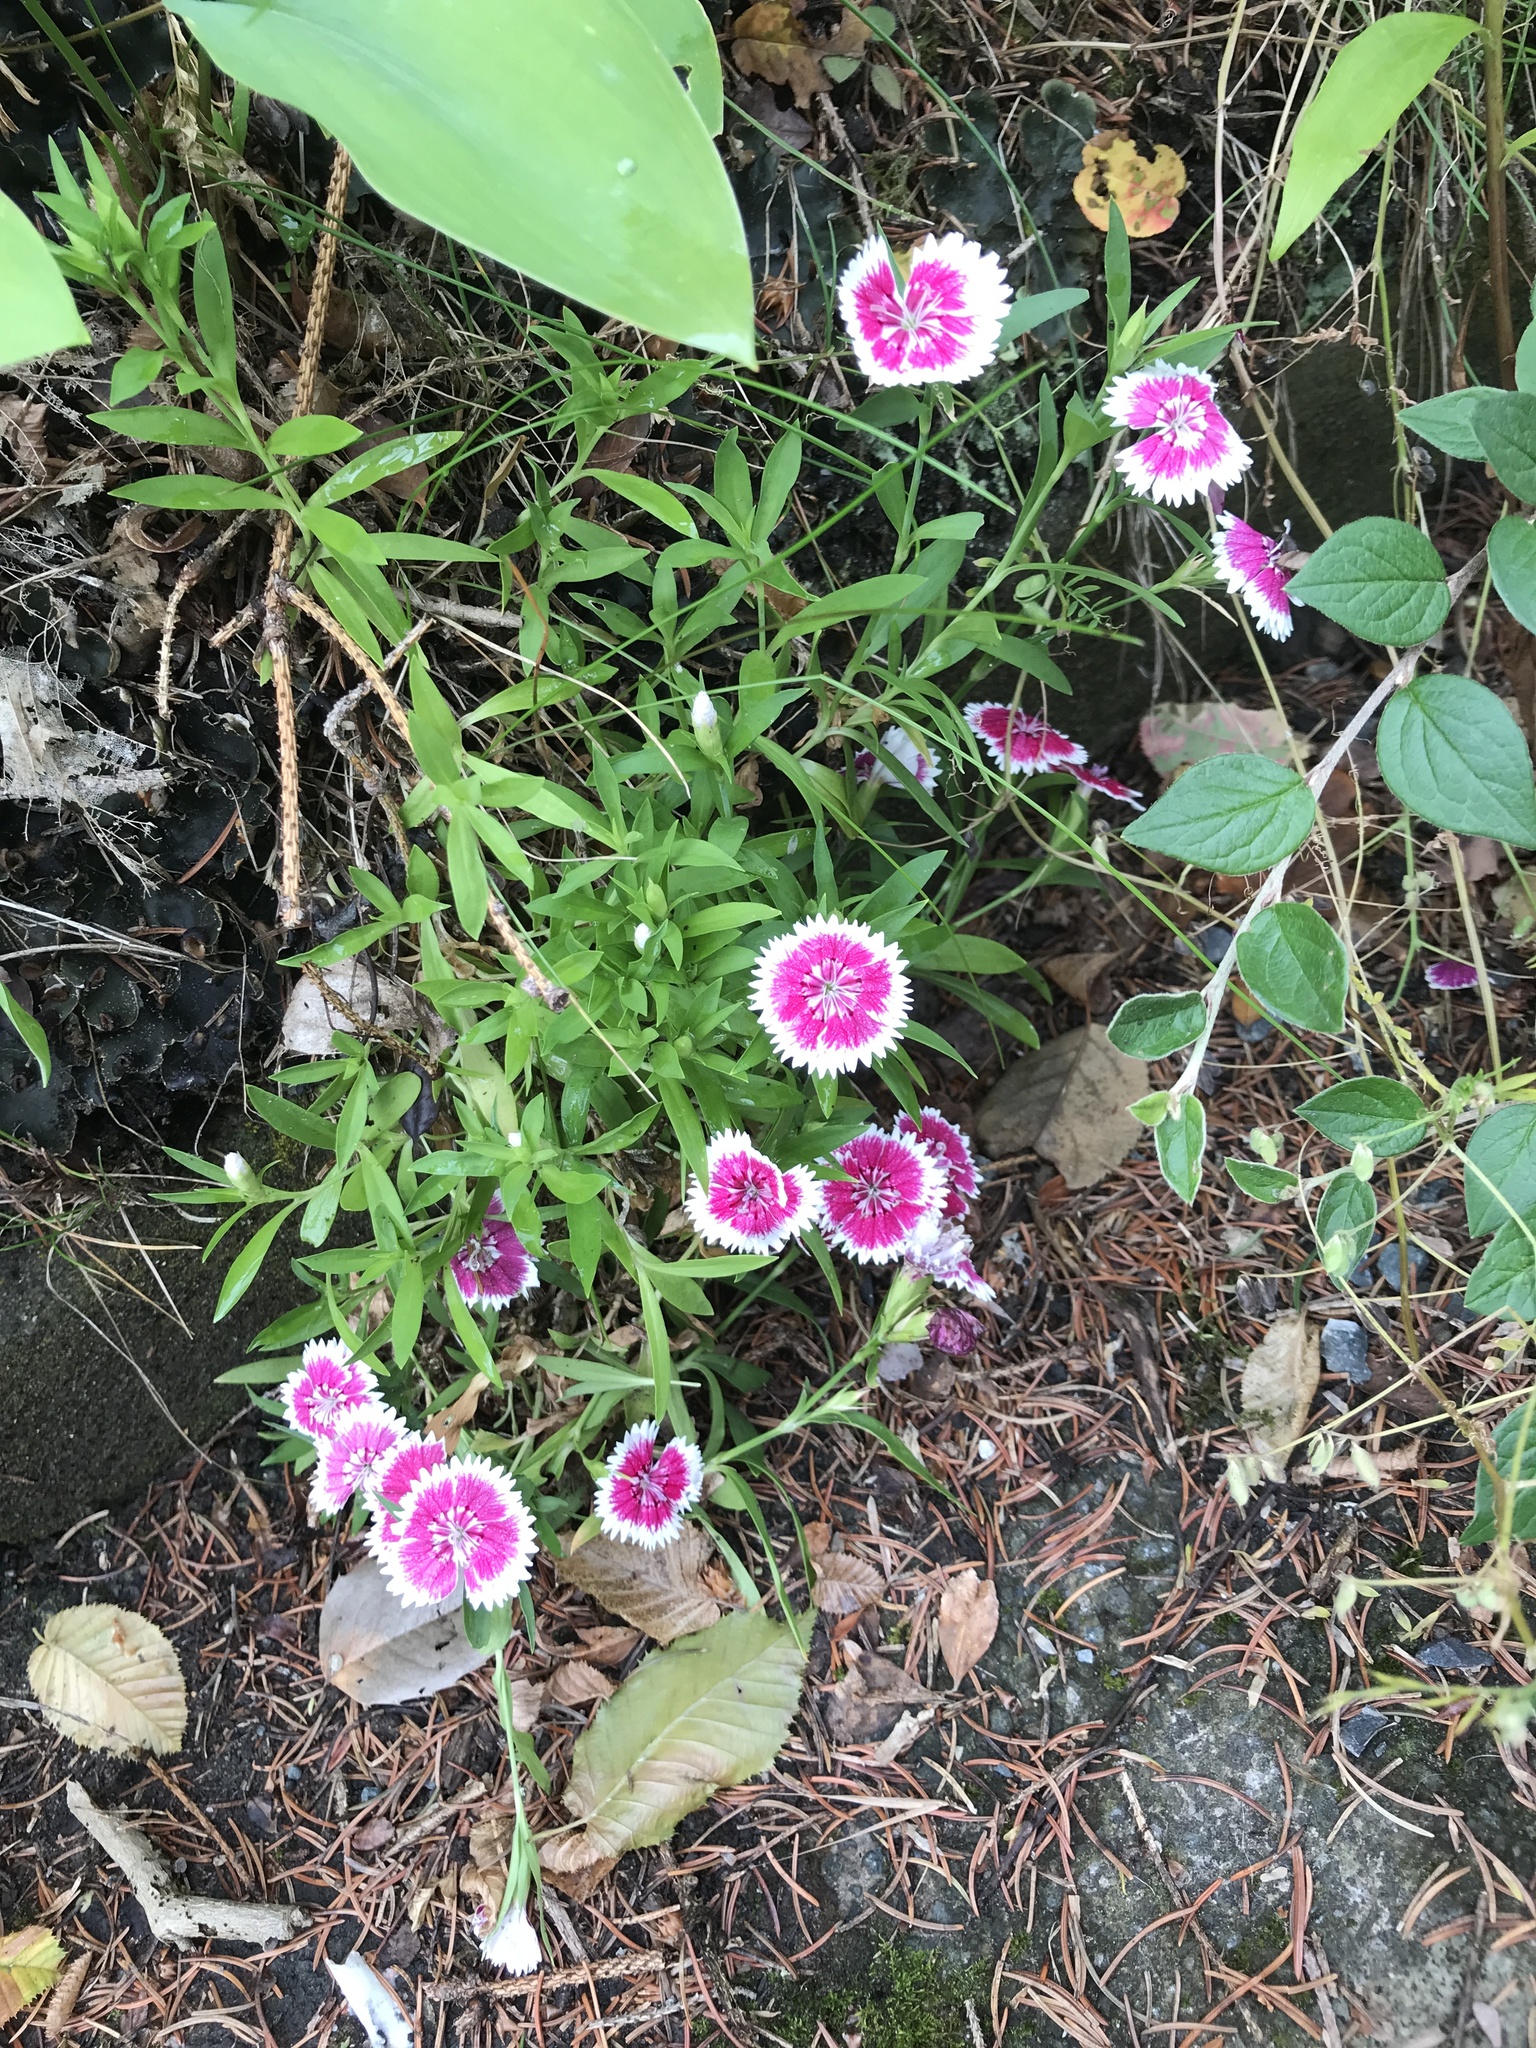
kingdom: Plantae
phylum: Tracheophyta
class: Magnoliopsida
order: Caryophyllales
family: Caryophyllaceae
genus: Dianthus
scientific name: Dianthus plumarius
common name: Pink
